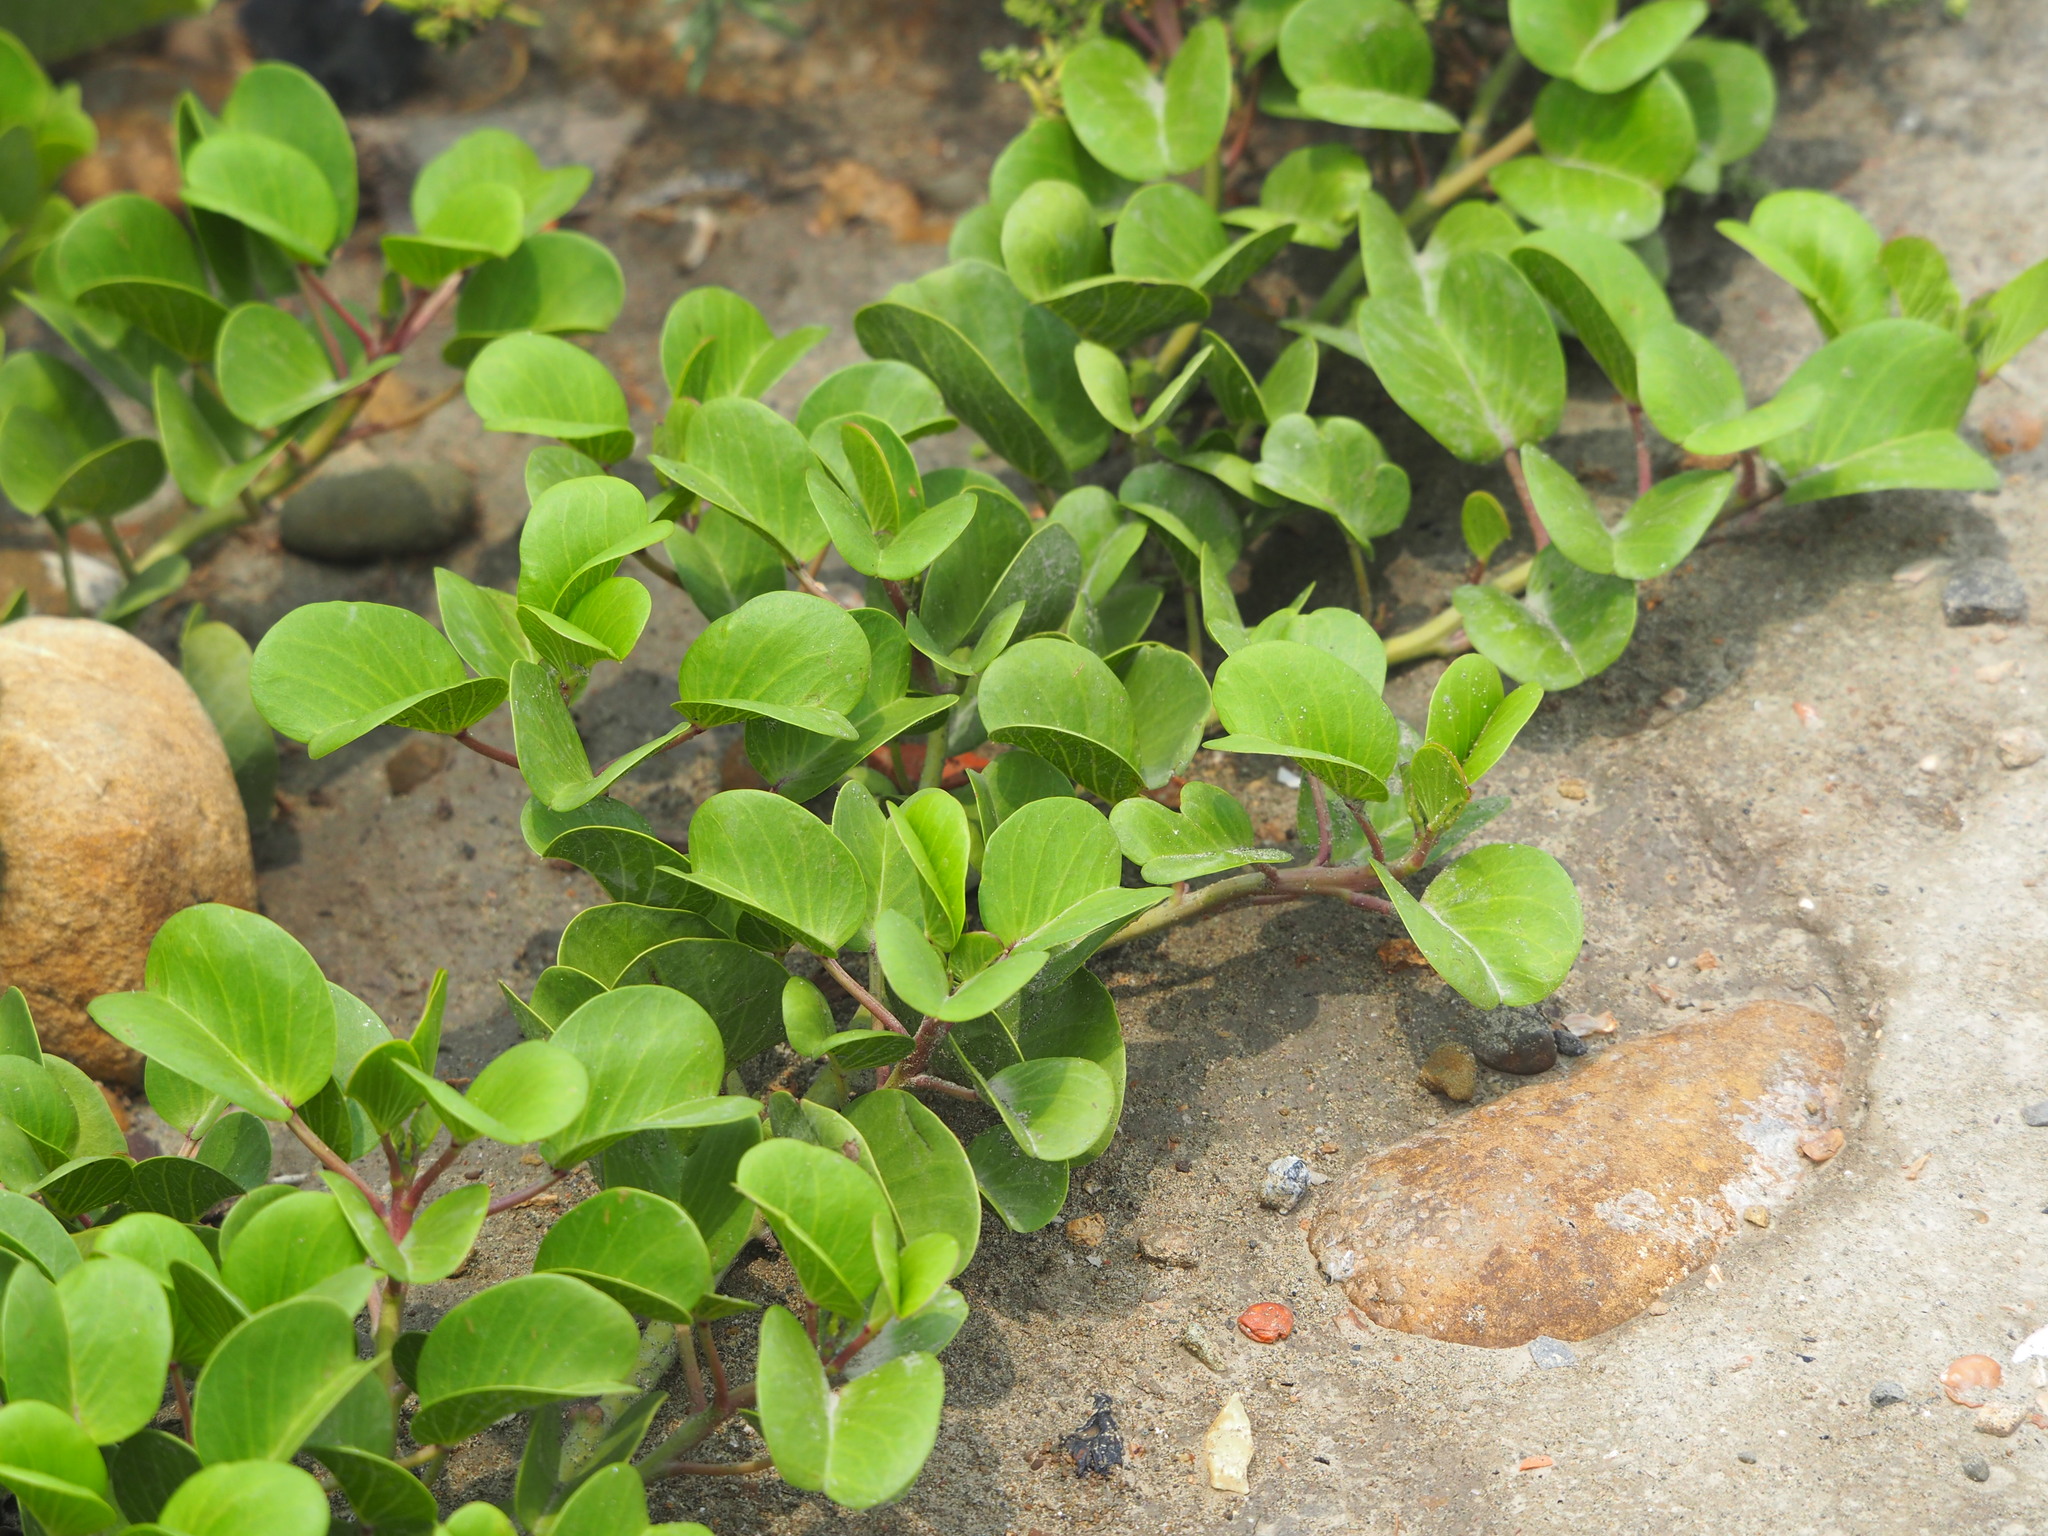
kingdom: Plantae
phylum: Tracheophyta
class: Magnoliopsida
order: Solanales
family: Convolvulaceae
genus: Ipomoea
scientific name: Ipomoea pes-caprae
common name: Beach morning glory
